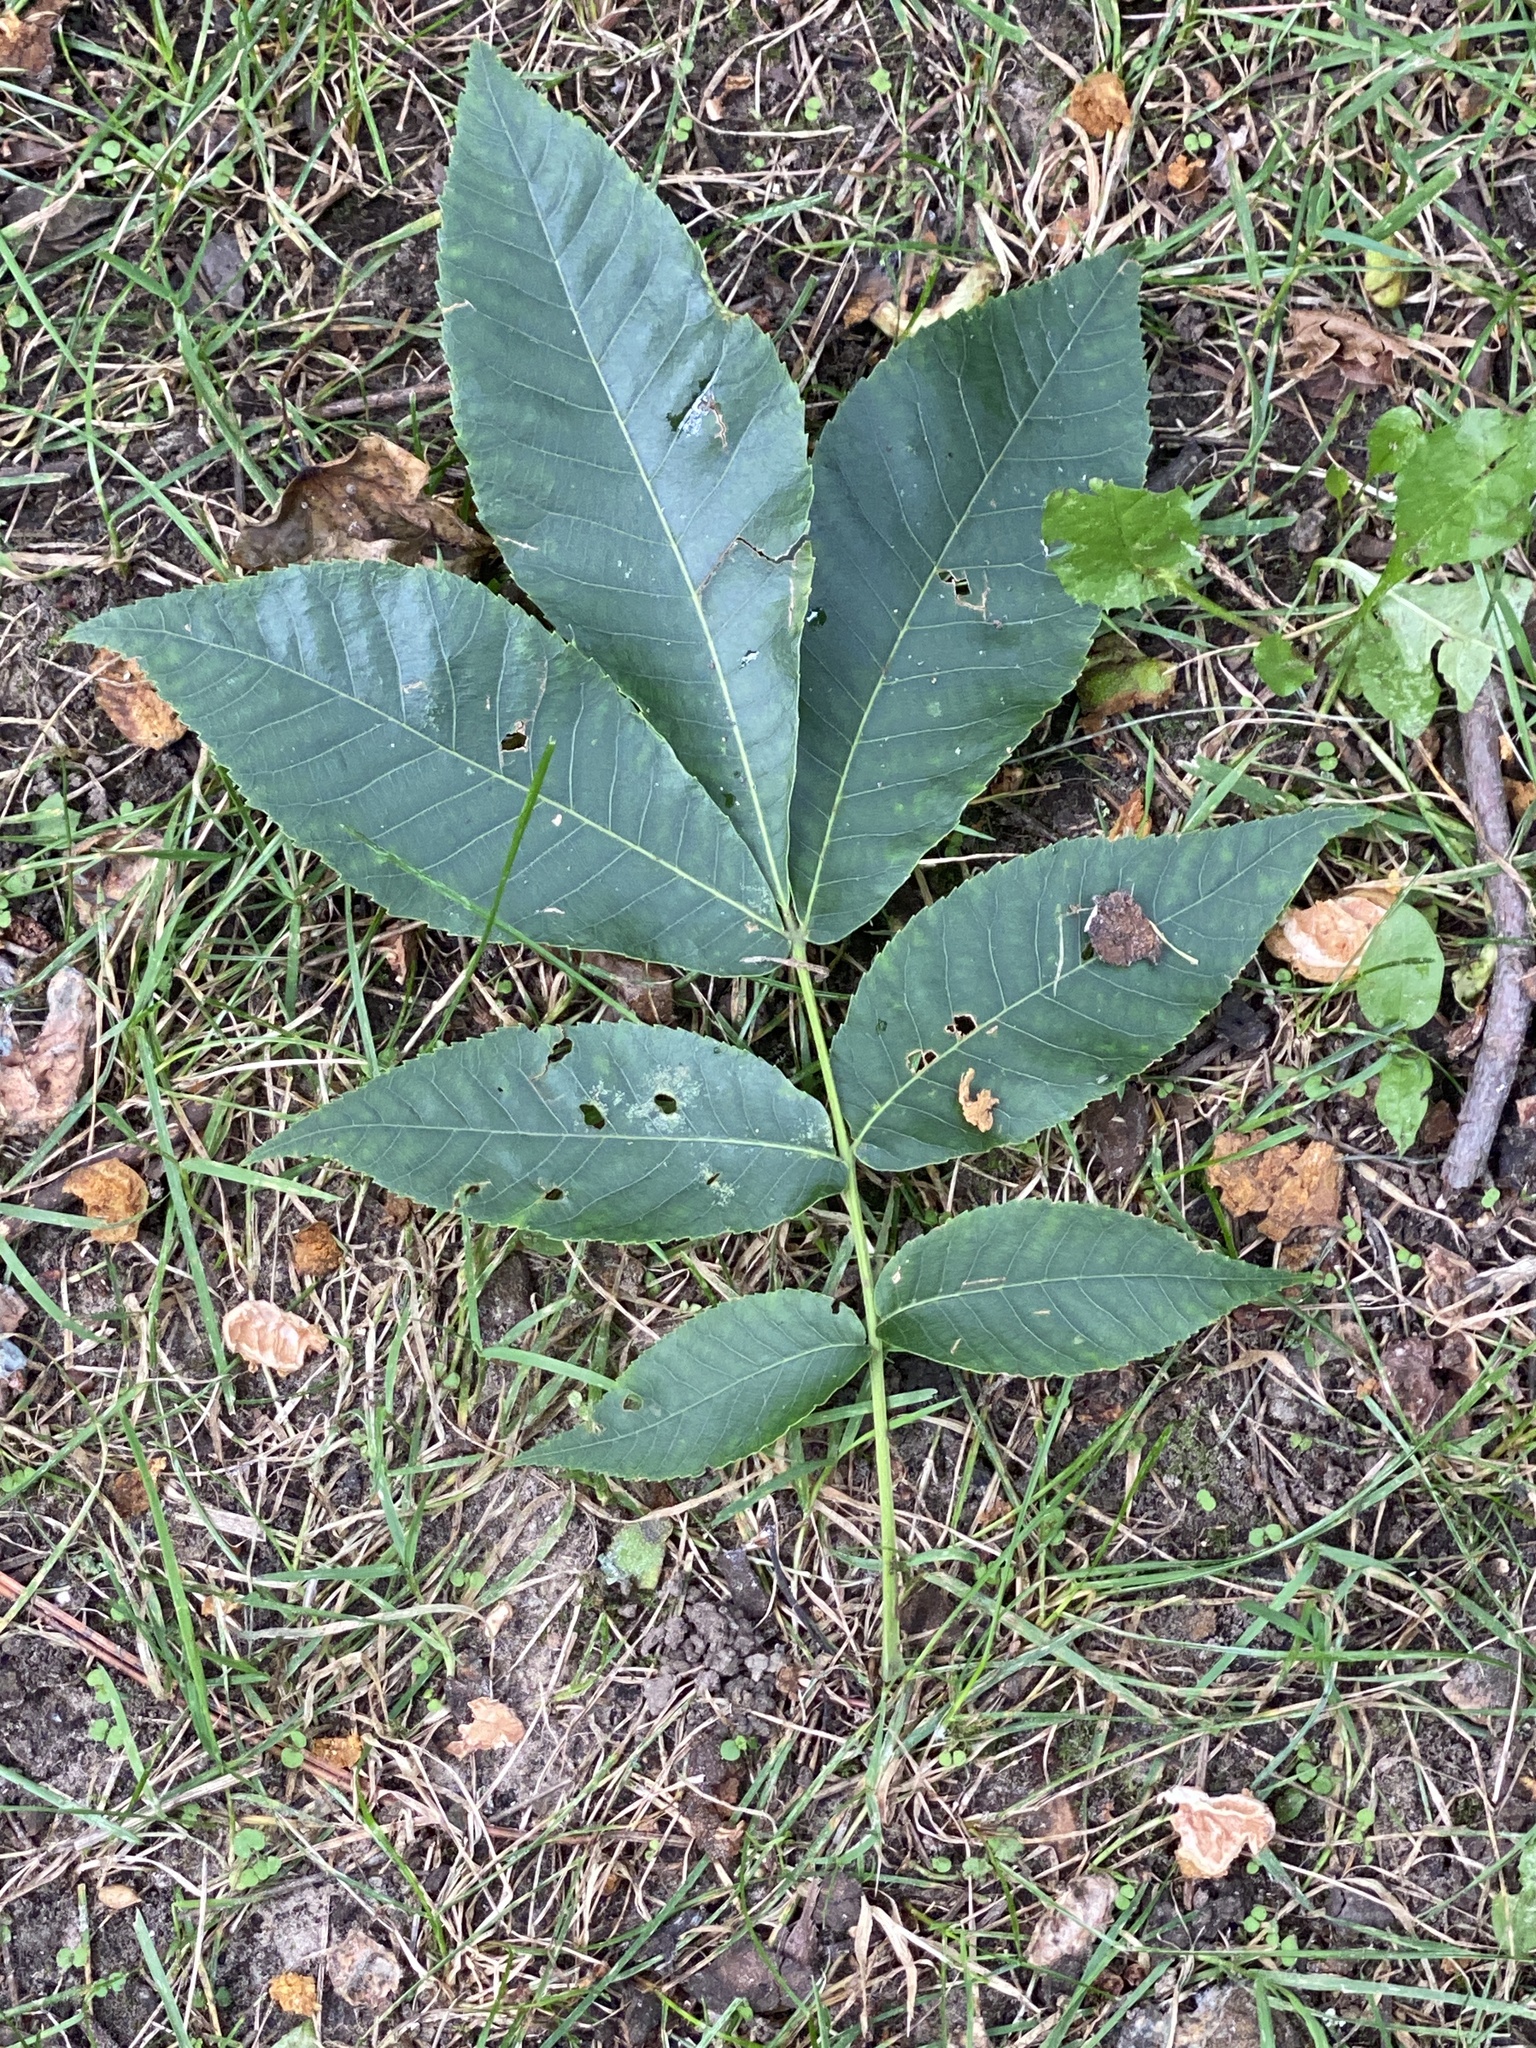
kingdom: Plantae
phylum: Tracheophyta
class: Magnoliopsida
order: Fagales
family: Juglandaceae
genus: Carya
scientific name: Carya cordiformis
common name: Bitternut hickory
